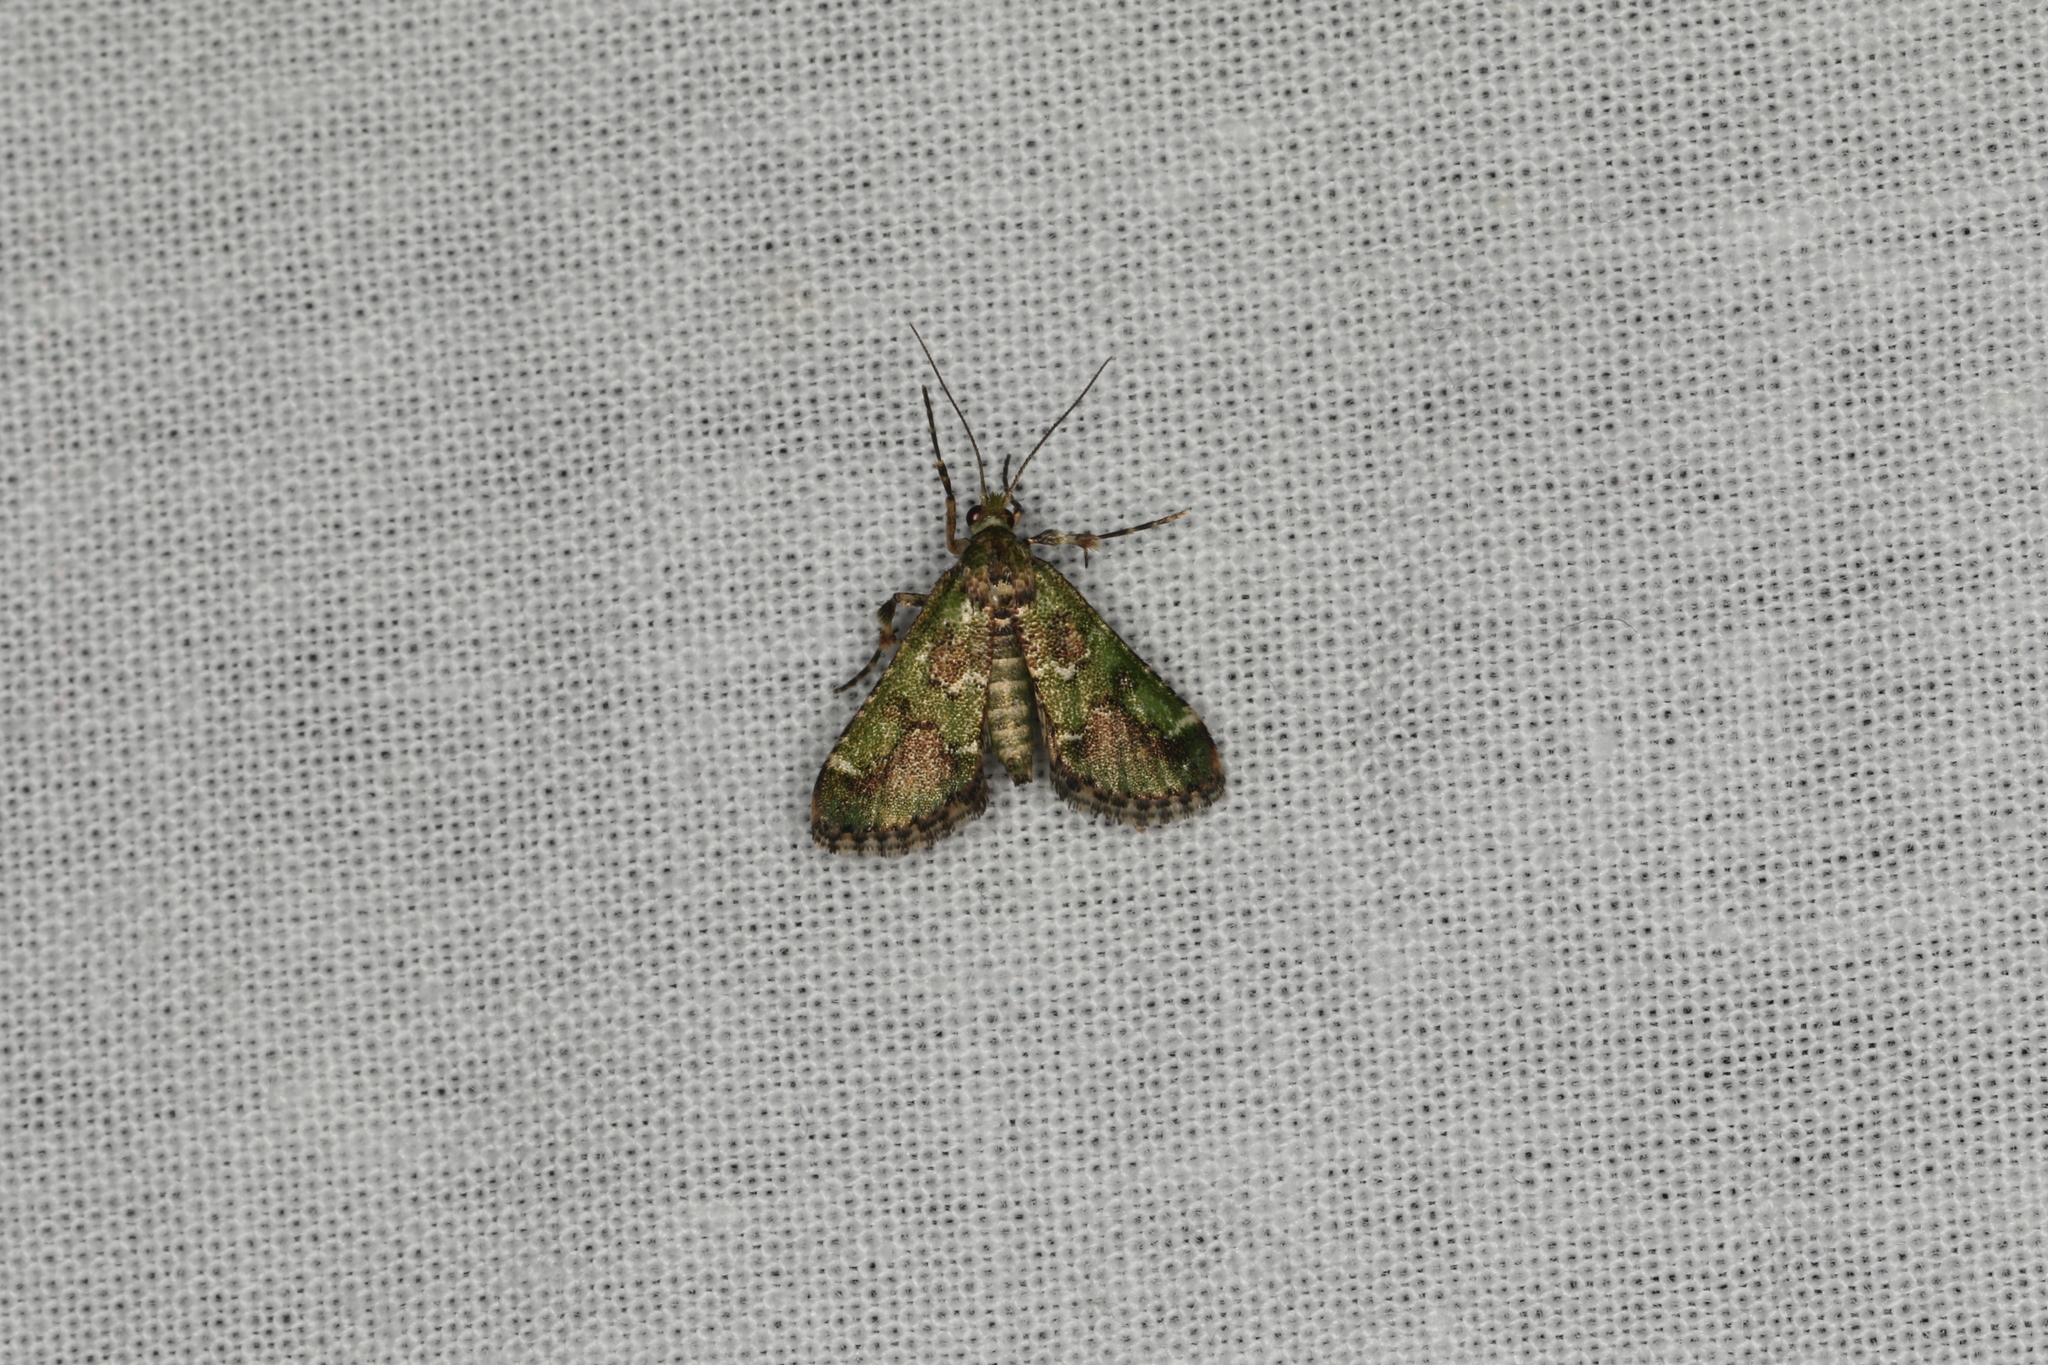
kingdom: Animalia
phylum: Arthropoda
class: Insecta
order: Lepidoptera
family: Pyralidae
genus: Arescoptera
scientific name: Arescoptera haplocala
